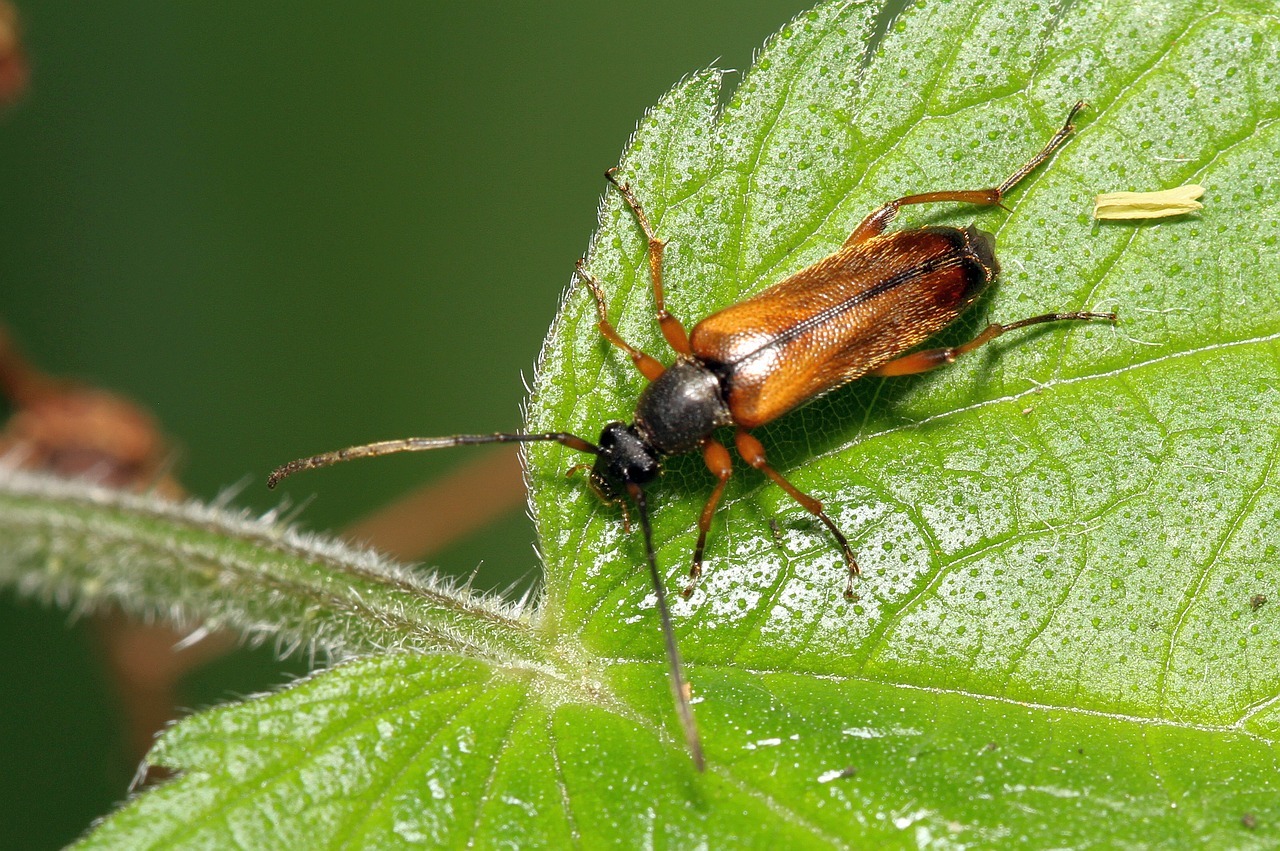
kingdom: Animalia
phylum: Arthropoda
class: Insecta
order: Coleoptera
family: Cerambycidae
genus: Alosterna
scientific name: Alosterna tabacicolor
